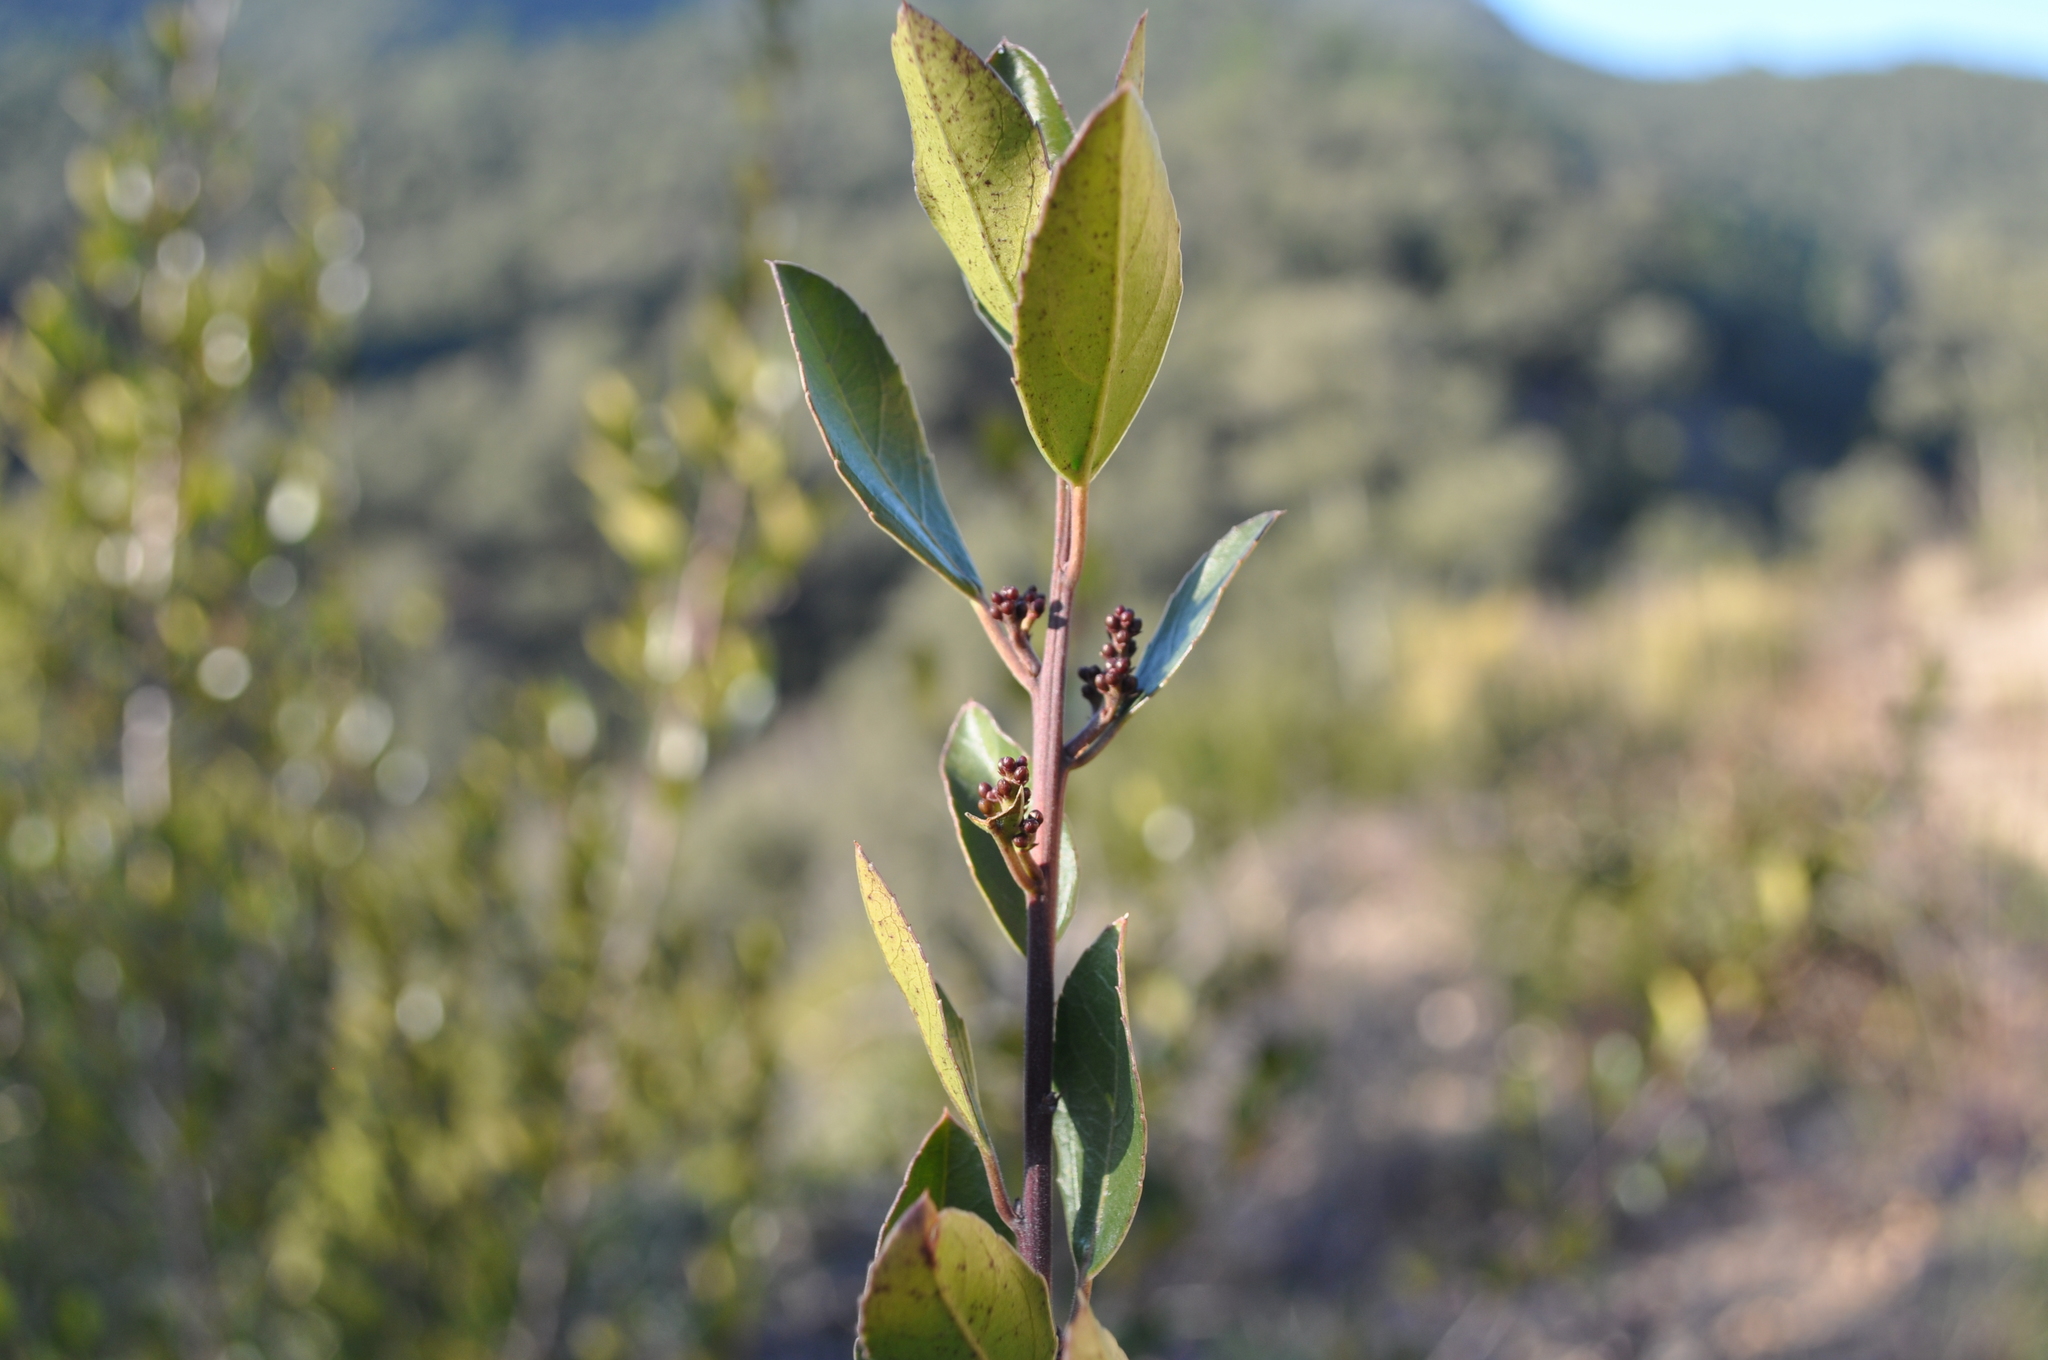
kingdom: Plantae
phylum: Tracheophyta
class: Magnoliopsida
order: Rosales
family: Rhamnaceae
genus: Rhamnus
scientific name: Rhamnus alaternus
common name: Mediterranean buckthorn
